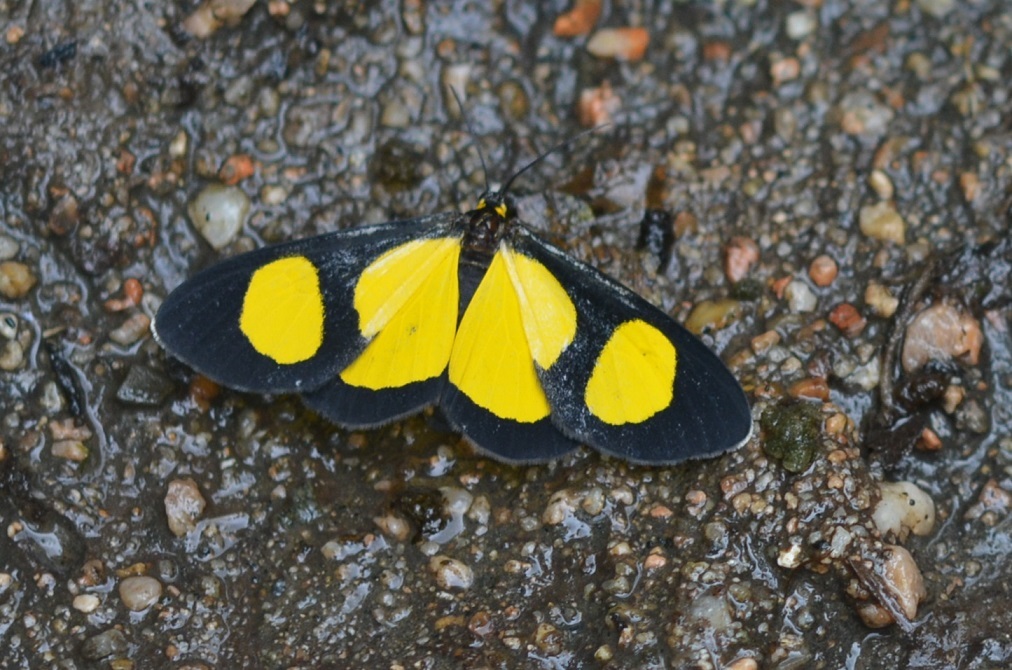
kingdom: Animalia
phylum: Arthropoda
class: Insecta
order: Lepidoptera
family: Geometridae
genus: Atyriodes
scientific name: Atyriodes jalapae
